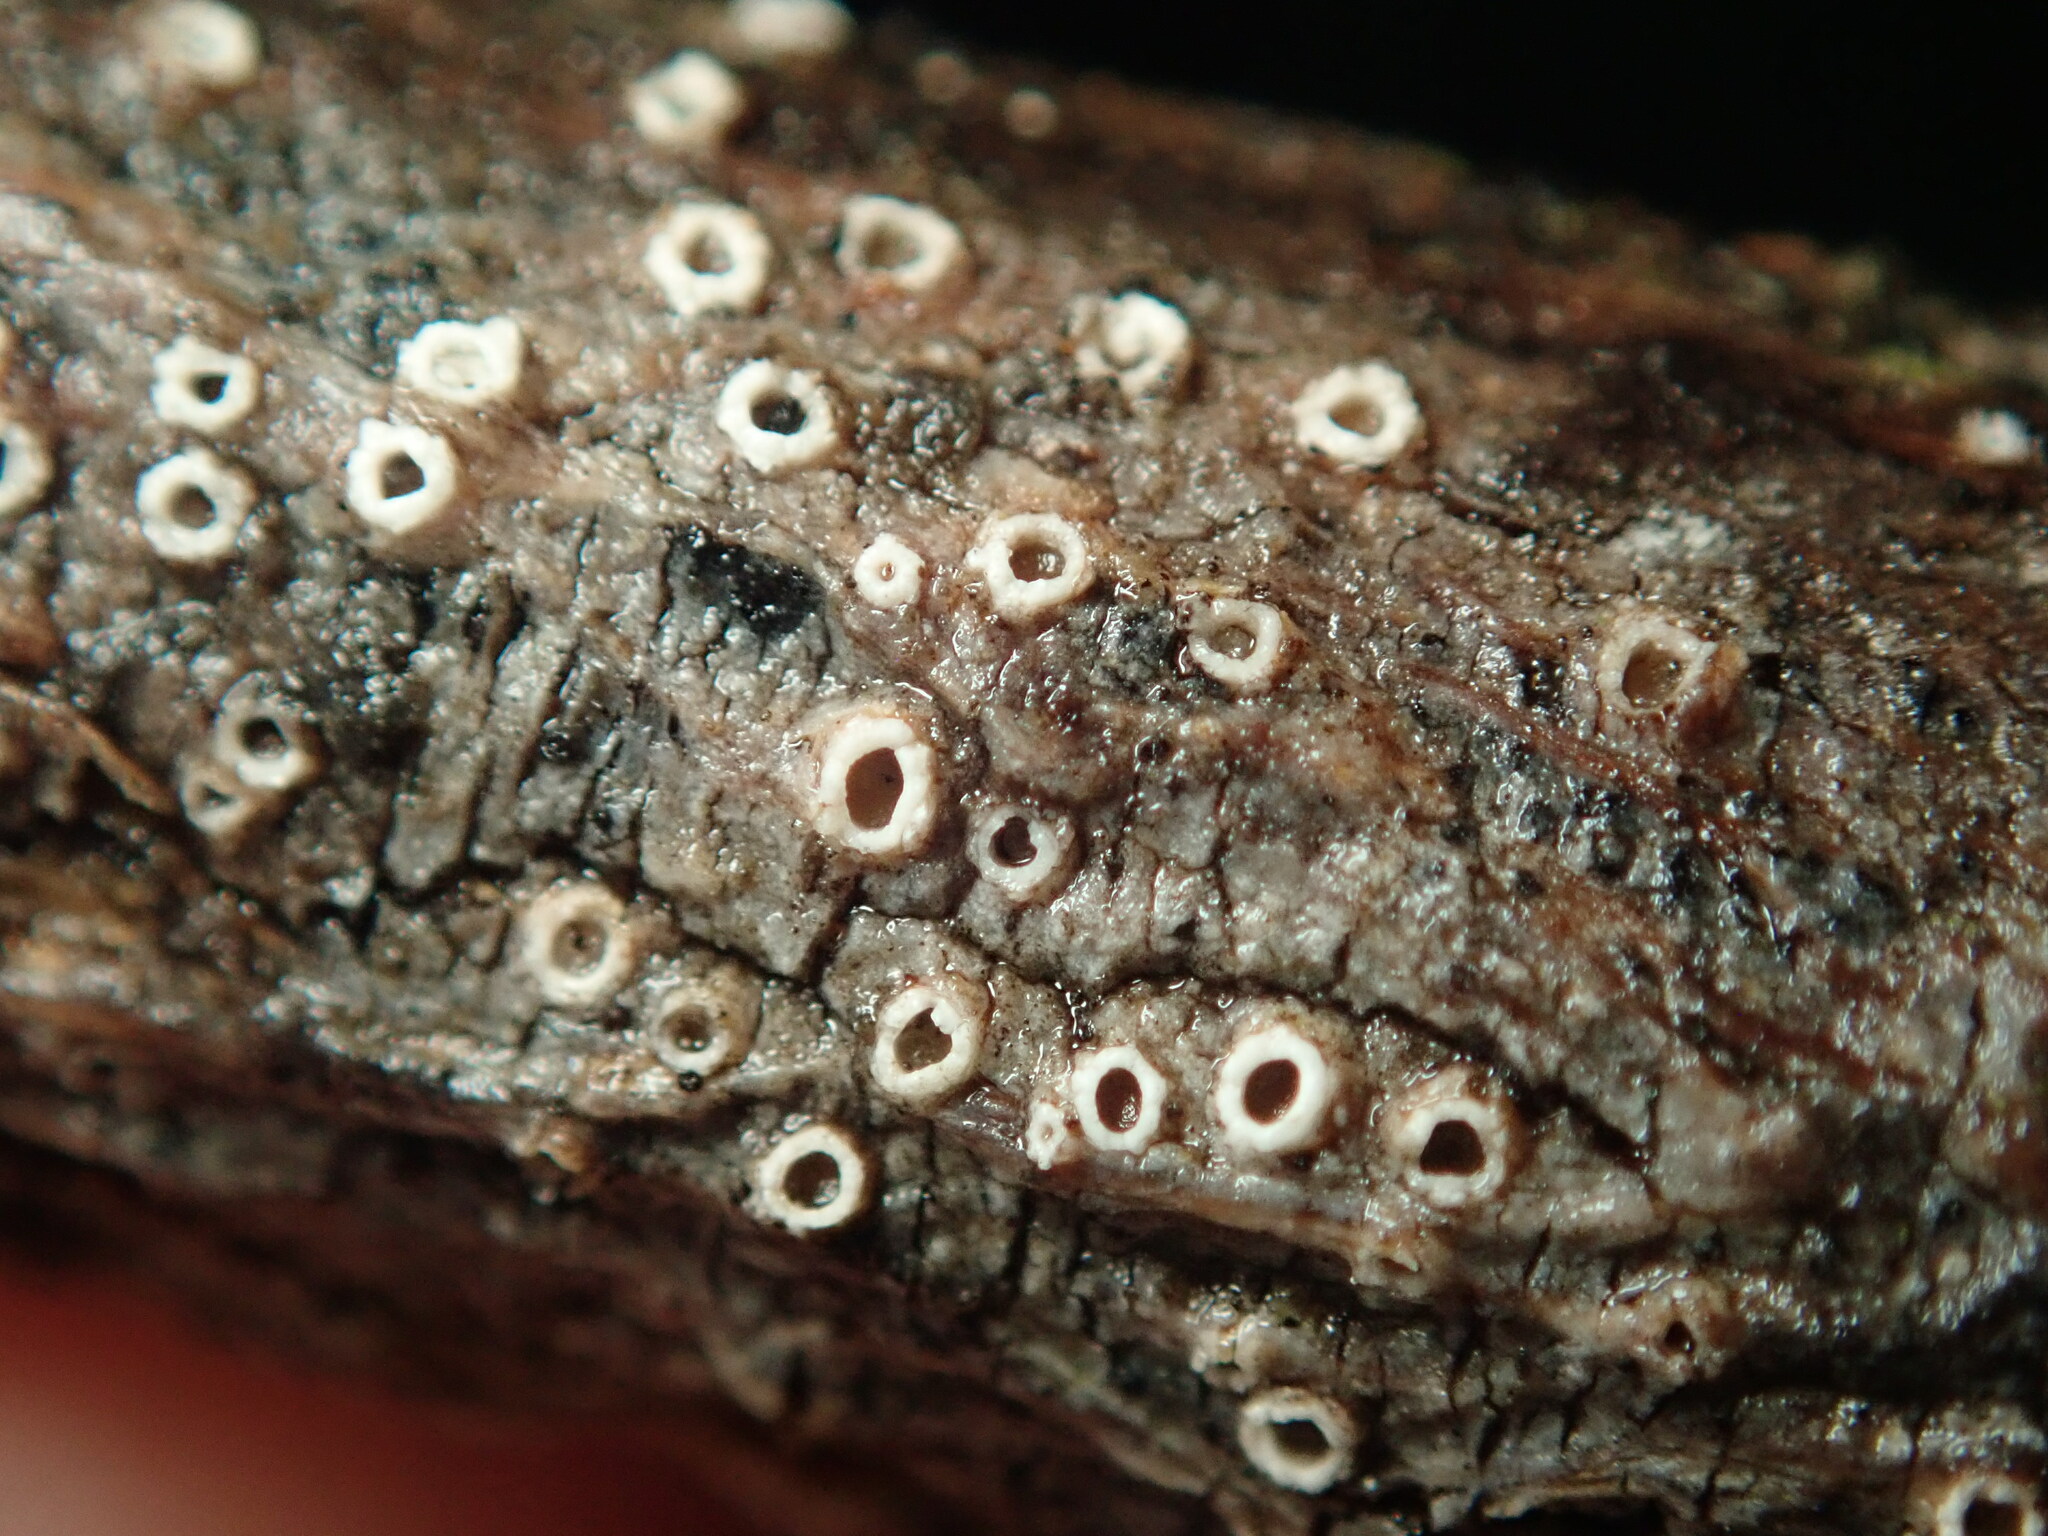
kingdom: Fungi
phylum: Ascomycota
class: Lecanoromycetes
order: Ostropales
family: Stictidaceae
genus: Stictis
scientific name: Stictis radiata
